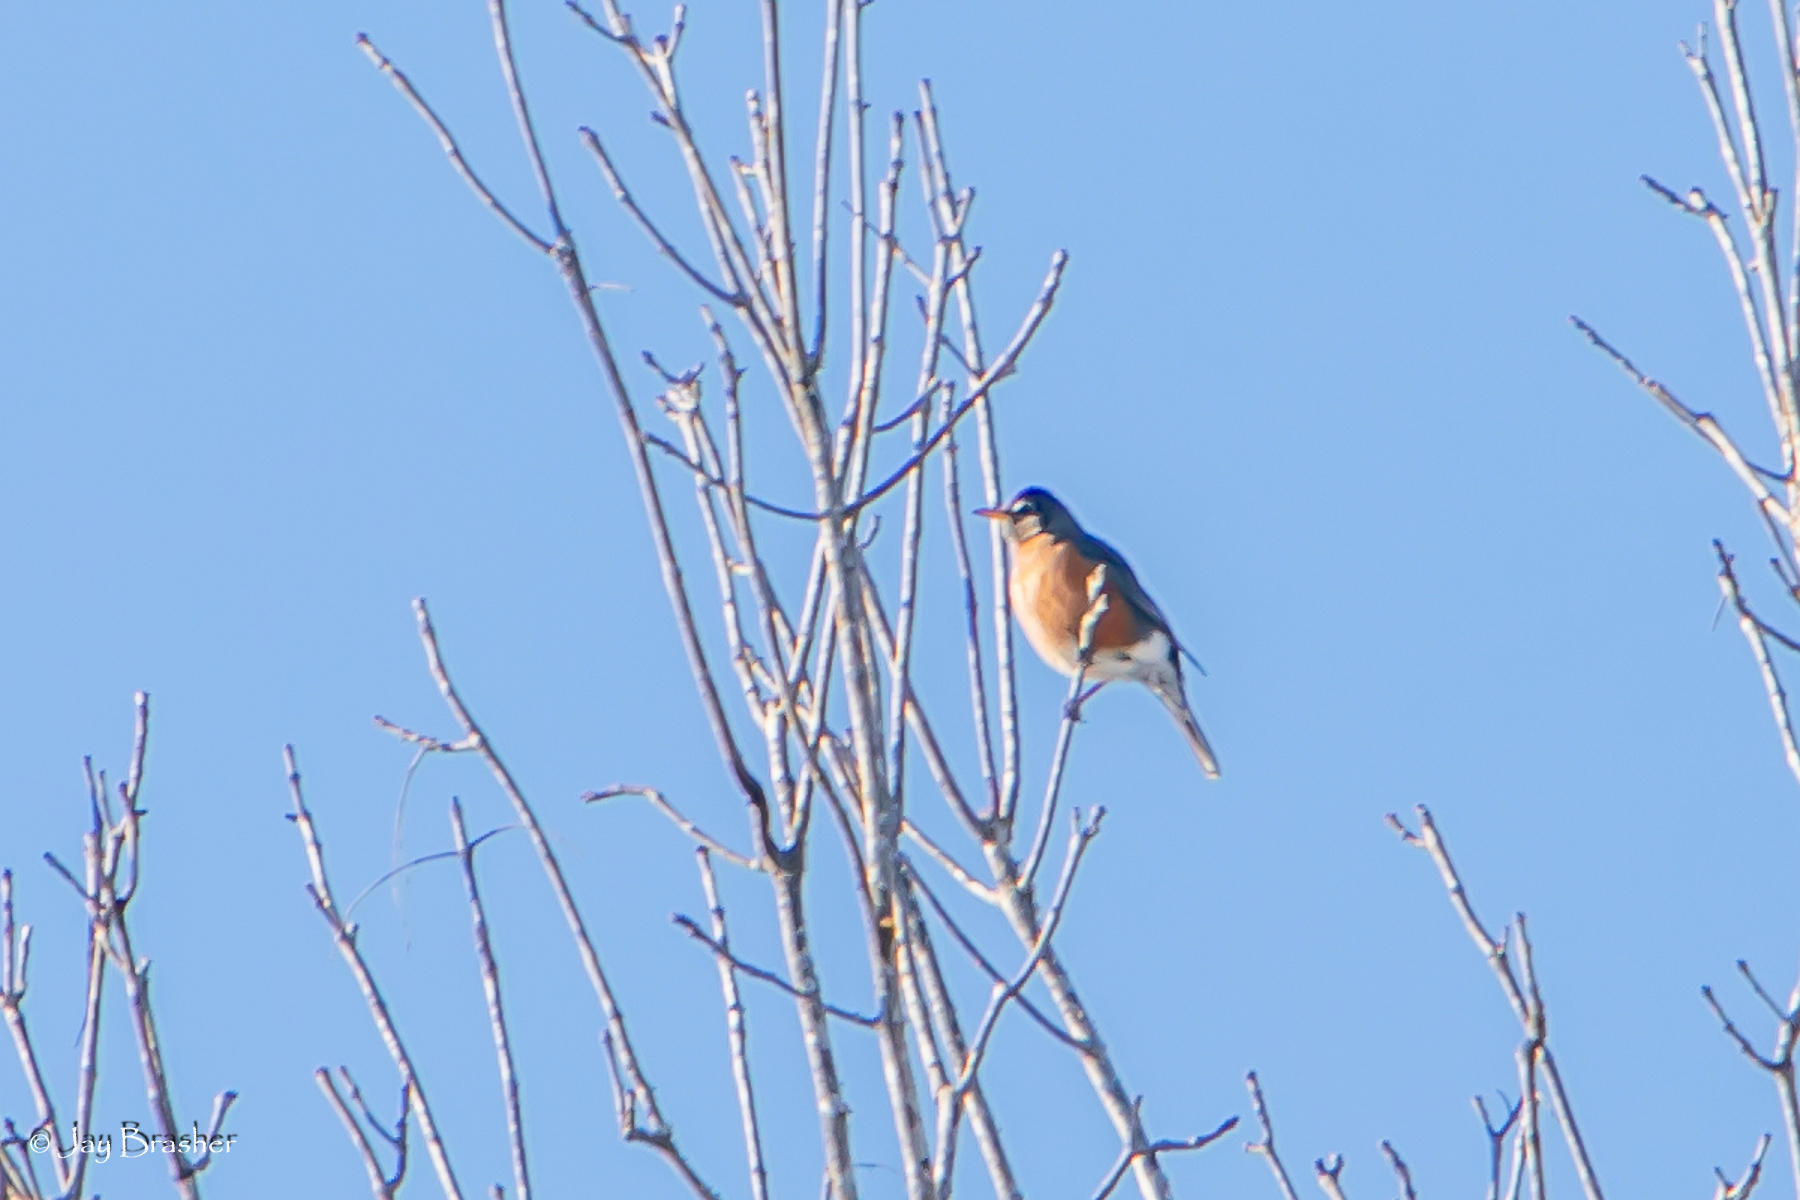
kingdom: Animalia
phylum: Chordata
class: Aves
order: Passeriformes
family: Turdidae
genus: Turdus
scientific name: Turdus migratorius
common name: American robin
